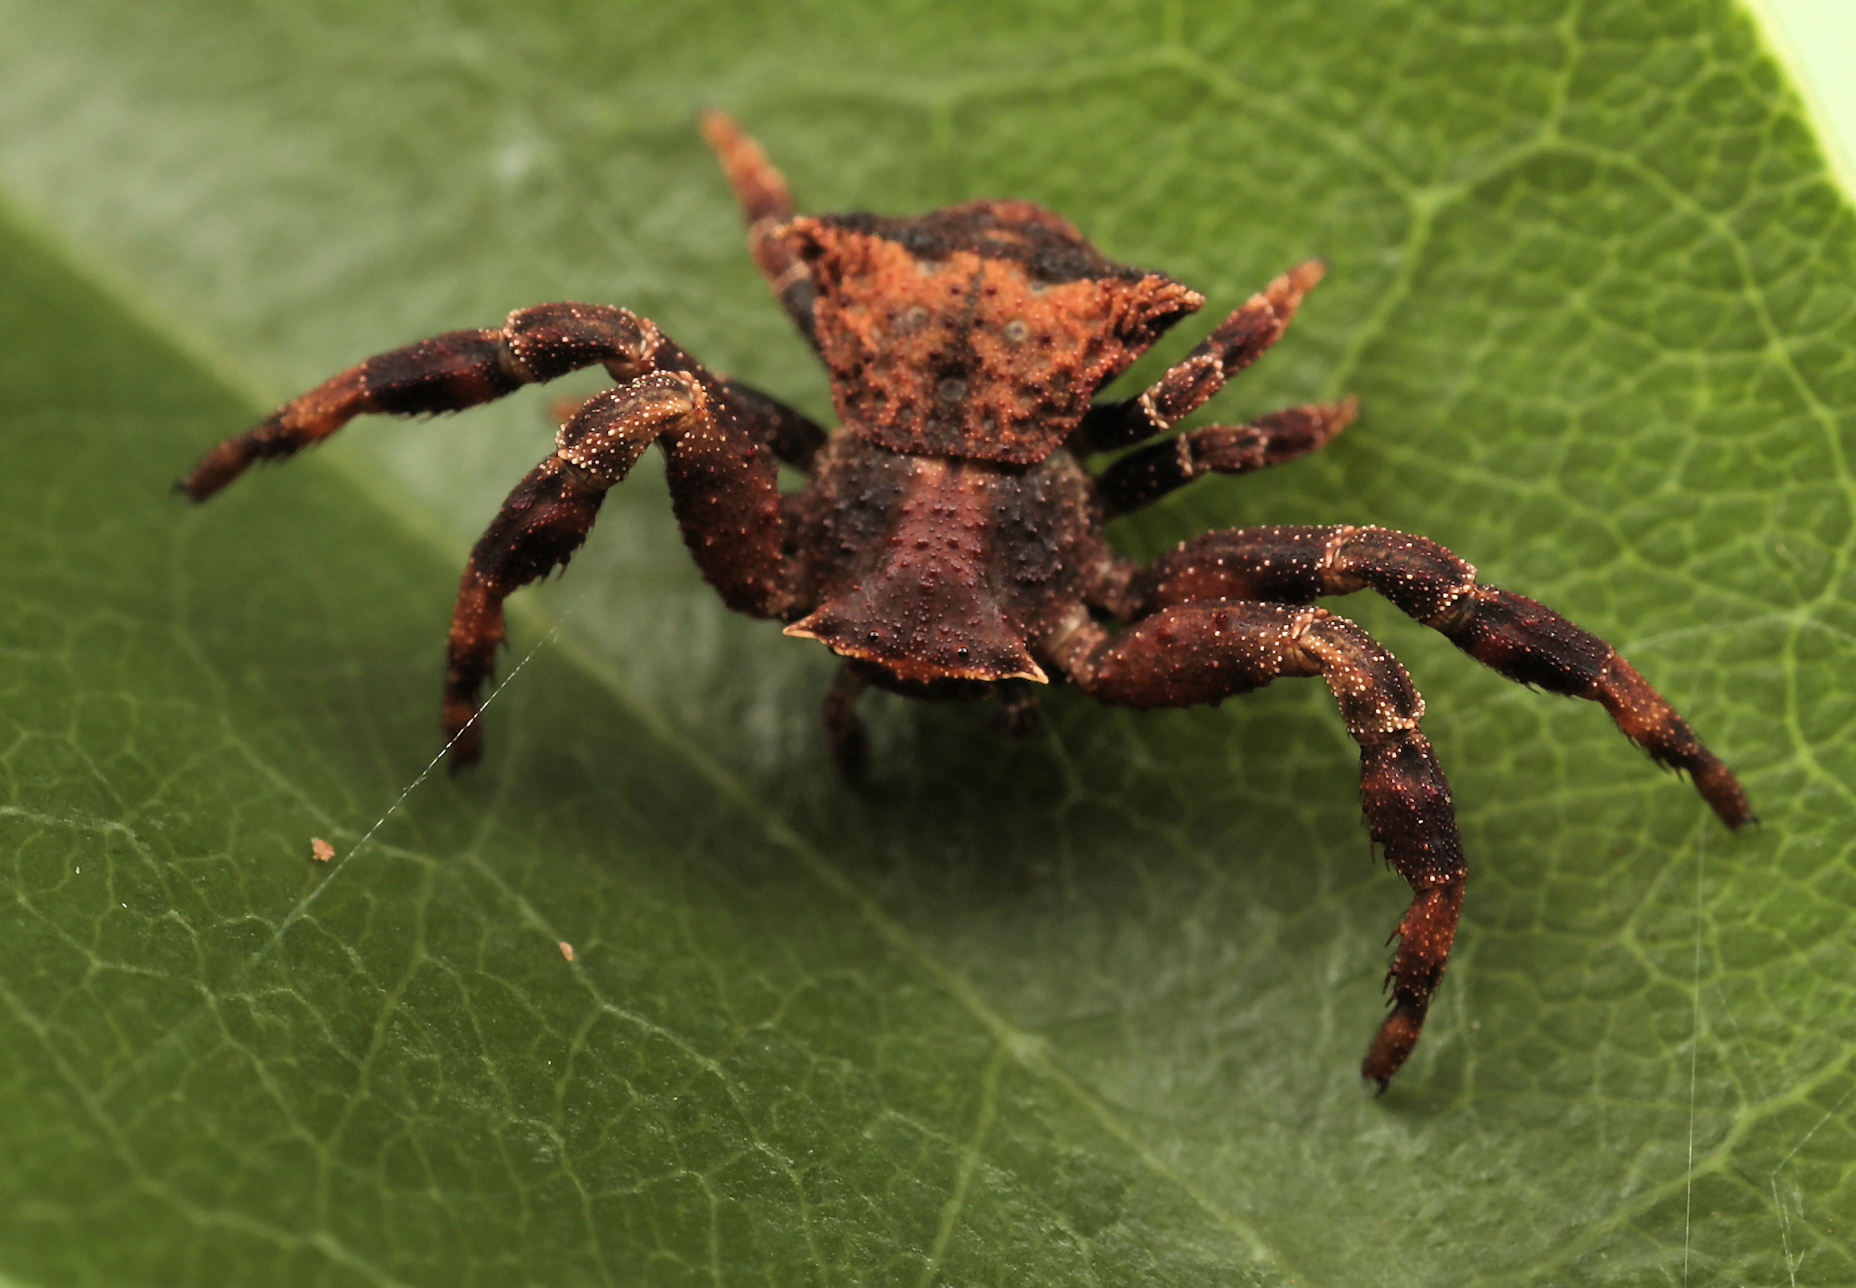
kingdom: Animalia
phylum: Arthropoda
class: Arachnida
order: Araneae
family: Thomisidae
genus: Thomisus
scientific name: Thomisus scrupeus
